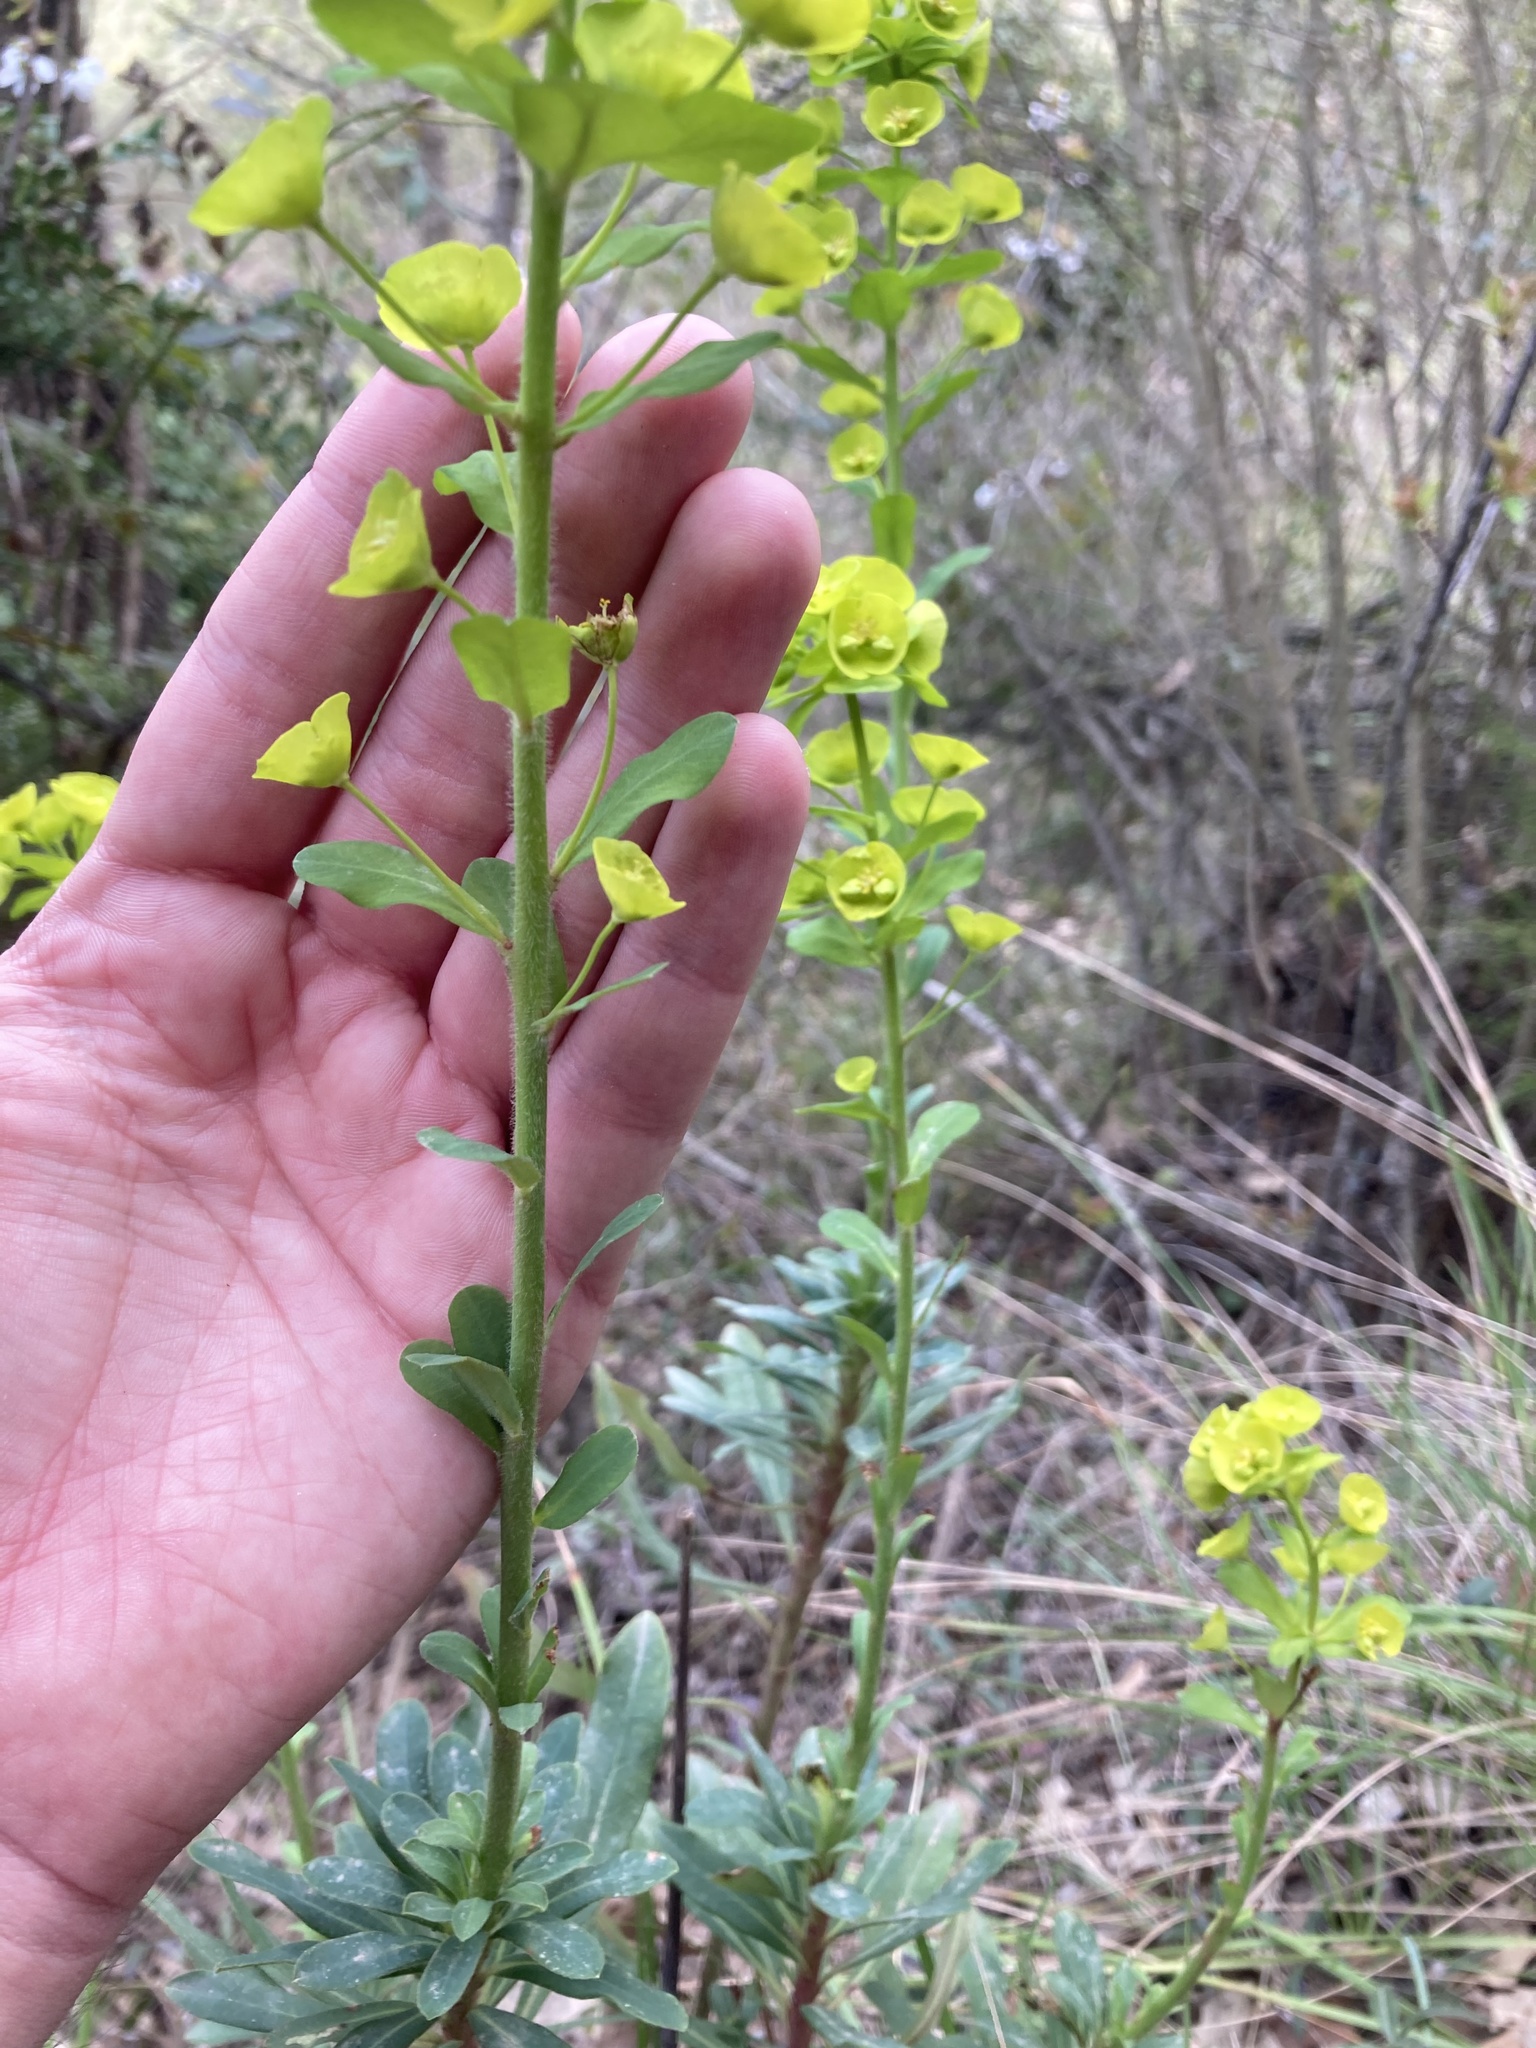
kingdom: Plantae
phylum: Tracheophyta
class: Magnoliopsida
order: Malpighiales
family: Euphorbiaceae
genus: Euphorbia
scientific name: Euphorbia amygdaloides
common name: Wood spurge
